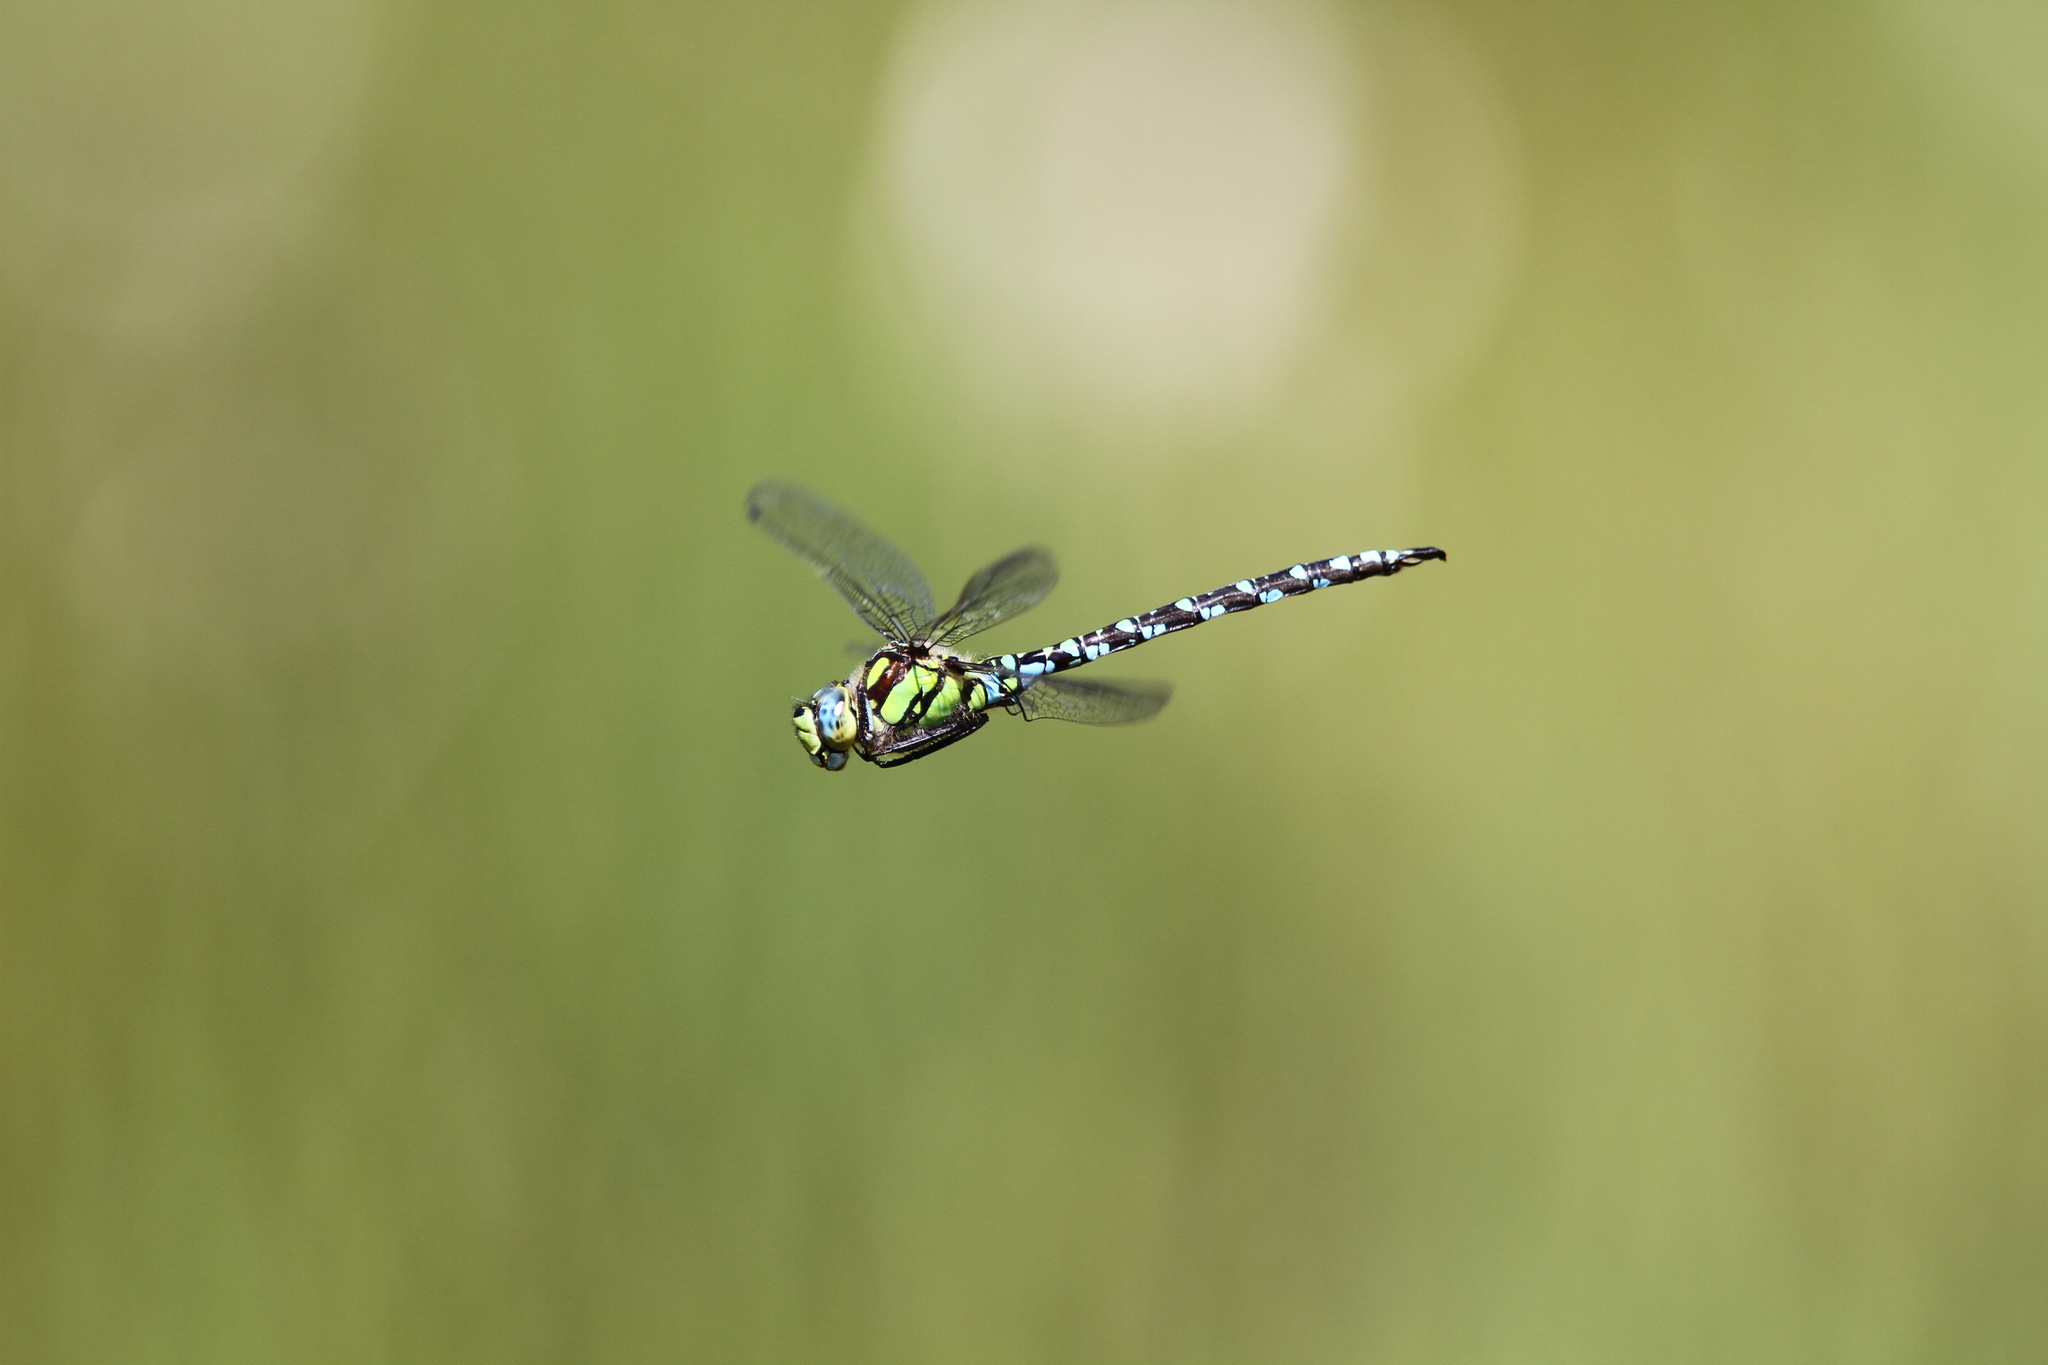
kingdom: Animalia
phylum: Arthropoda
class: Insecta
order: Odonata
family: Aeshnidae
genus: Aeshna
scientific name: Aeshna cyanea
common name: Southern hawker
